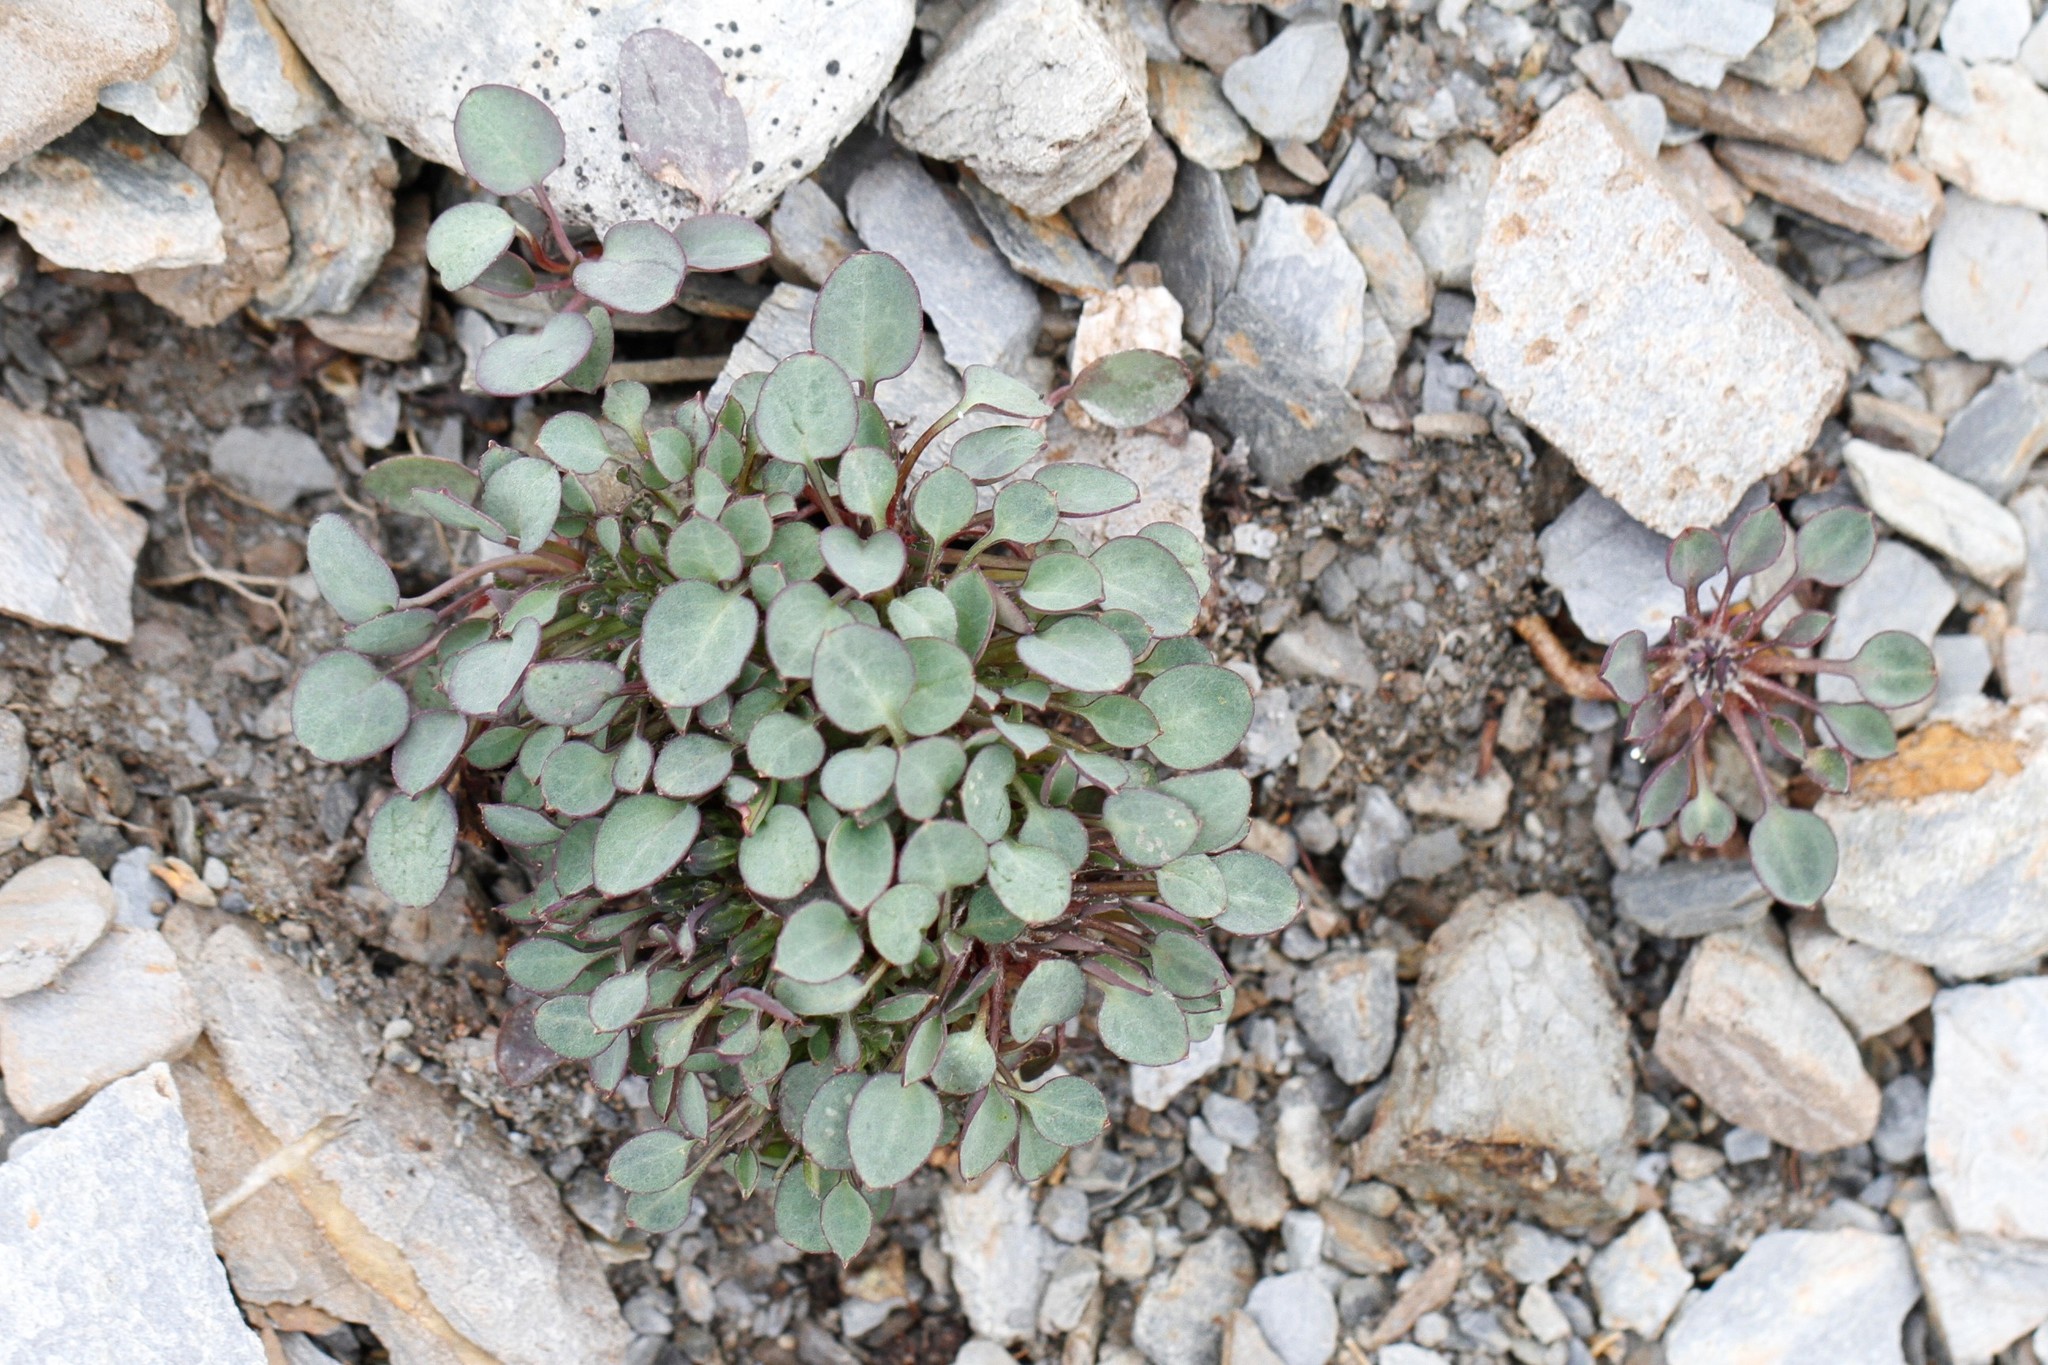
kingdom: Plantae
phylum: Tracheophyta
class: Magnoliopsida
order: Asterales
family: Asteraceae
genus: Askellia
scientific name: Askellia pygmaea
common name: Dwarf alpine hawksbeard
